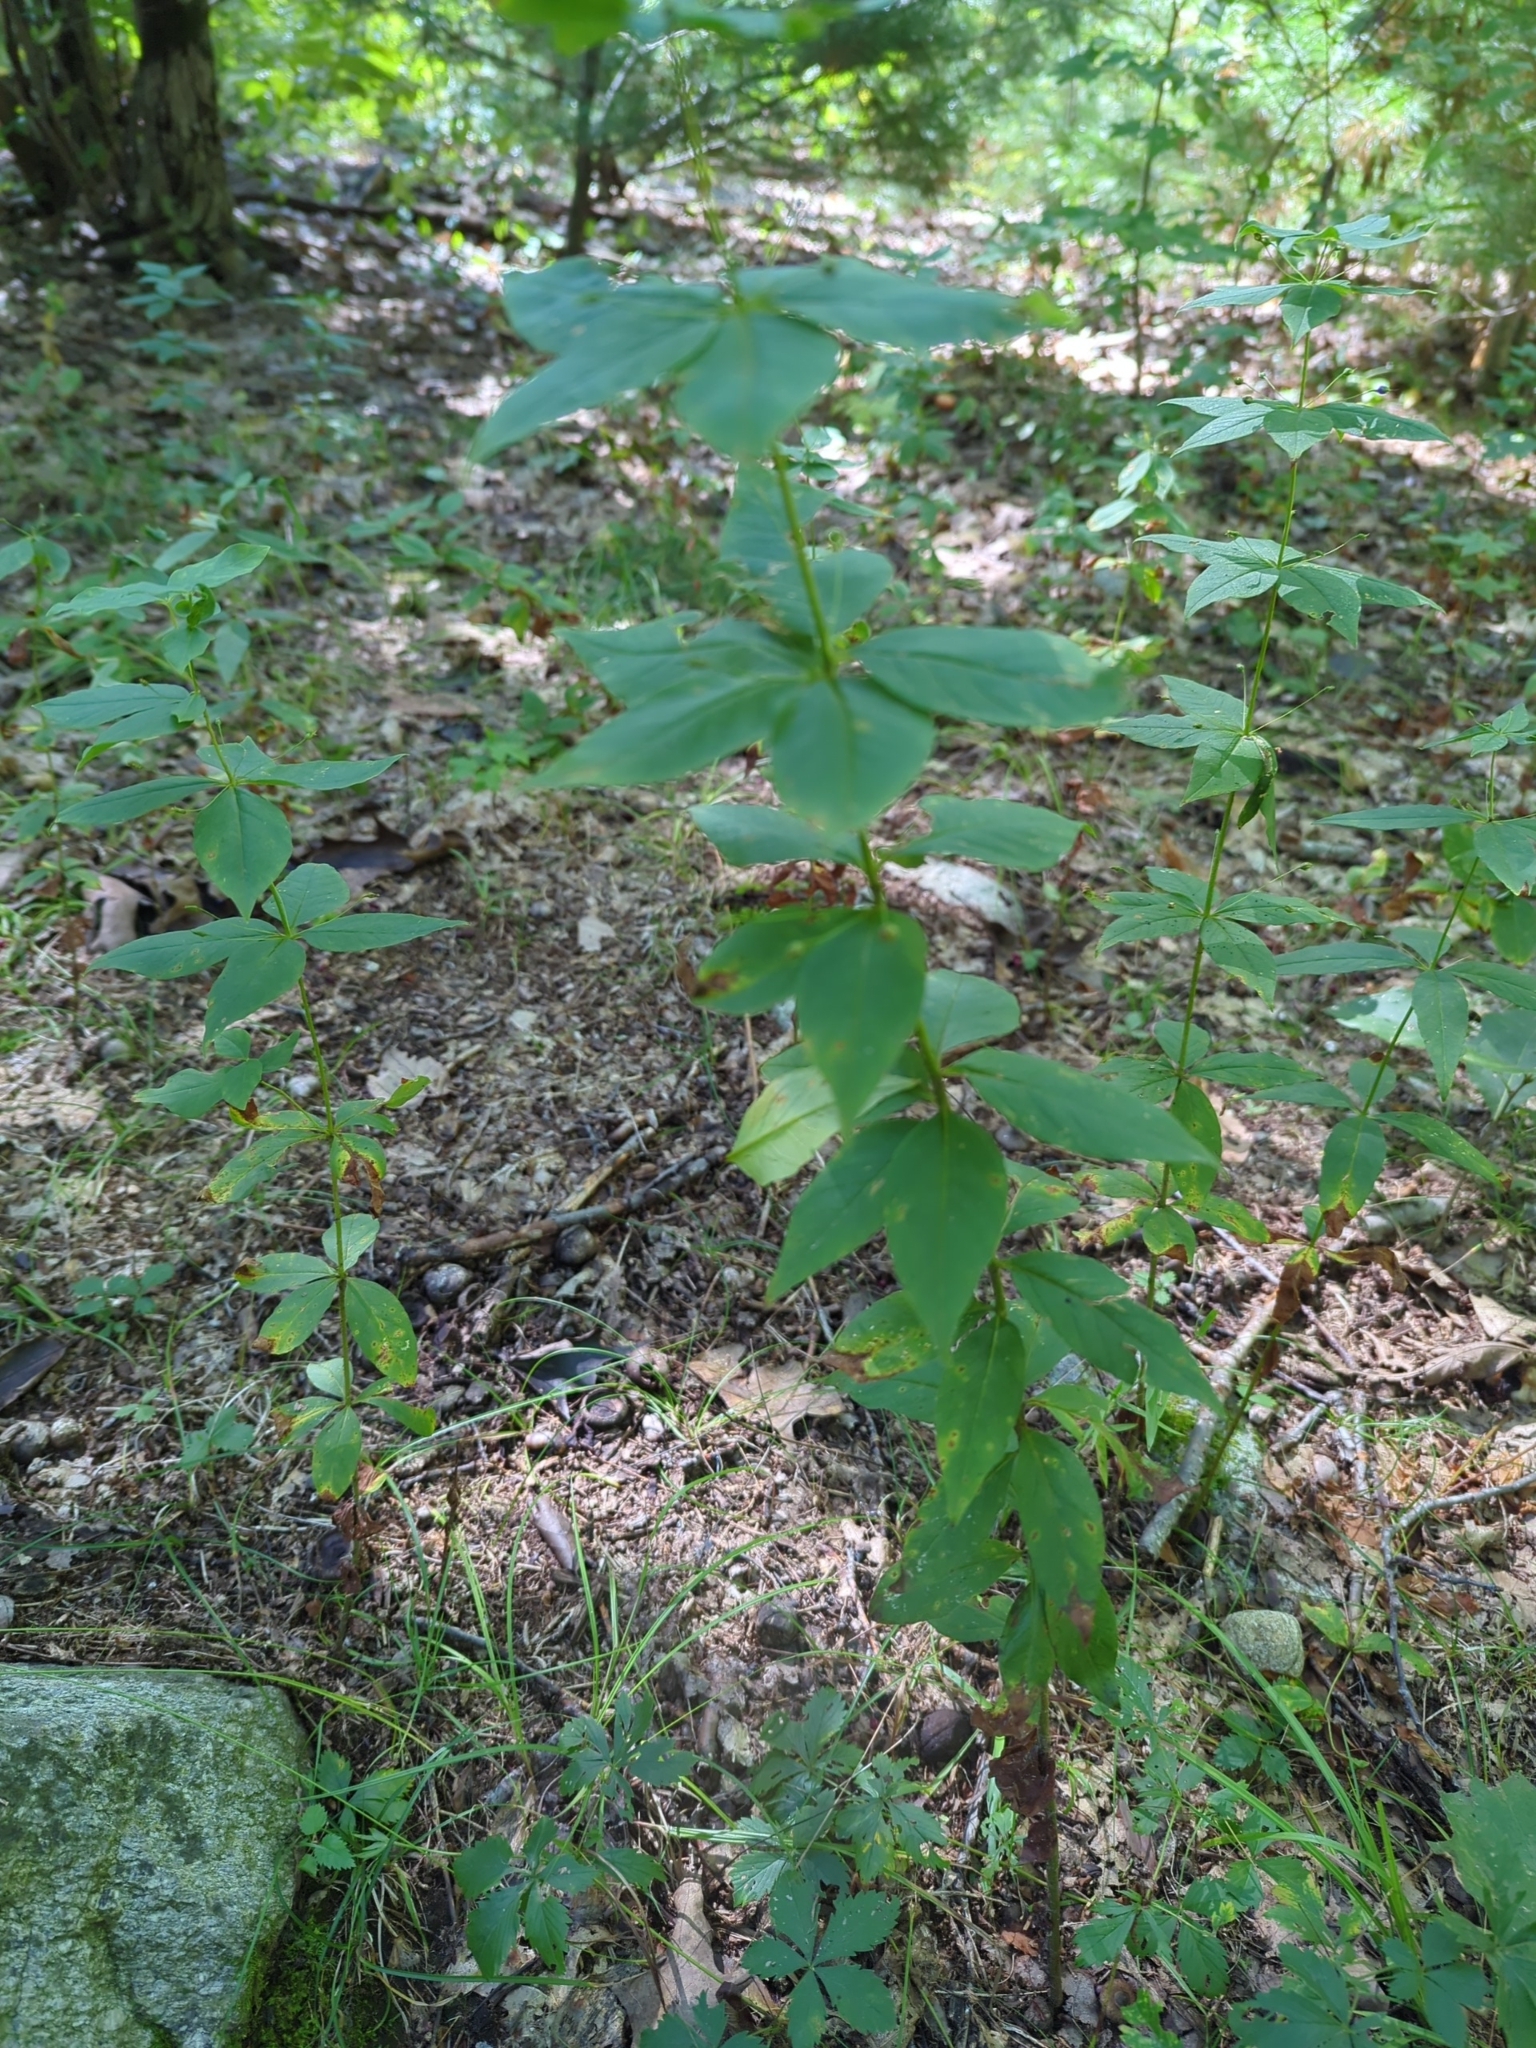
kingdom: Plantae
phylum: Tracheophyta
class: Magnoliopsida
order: Ericales
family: Primulaceae
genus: Lysimachia
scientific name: Lysimachia quadrifolia
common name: Whorled loosestrife
